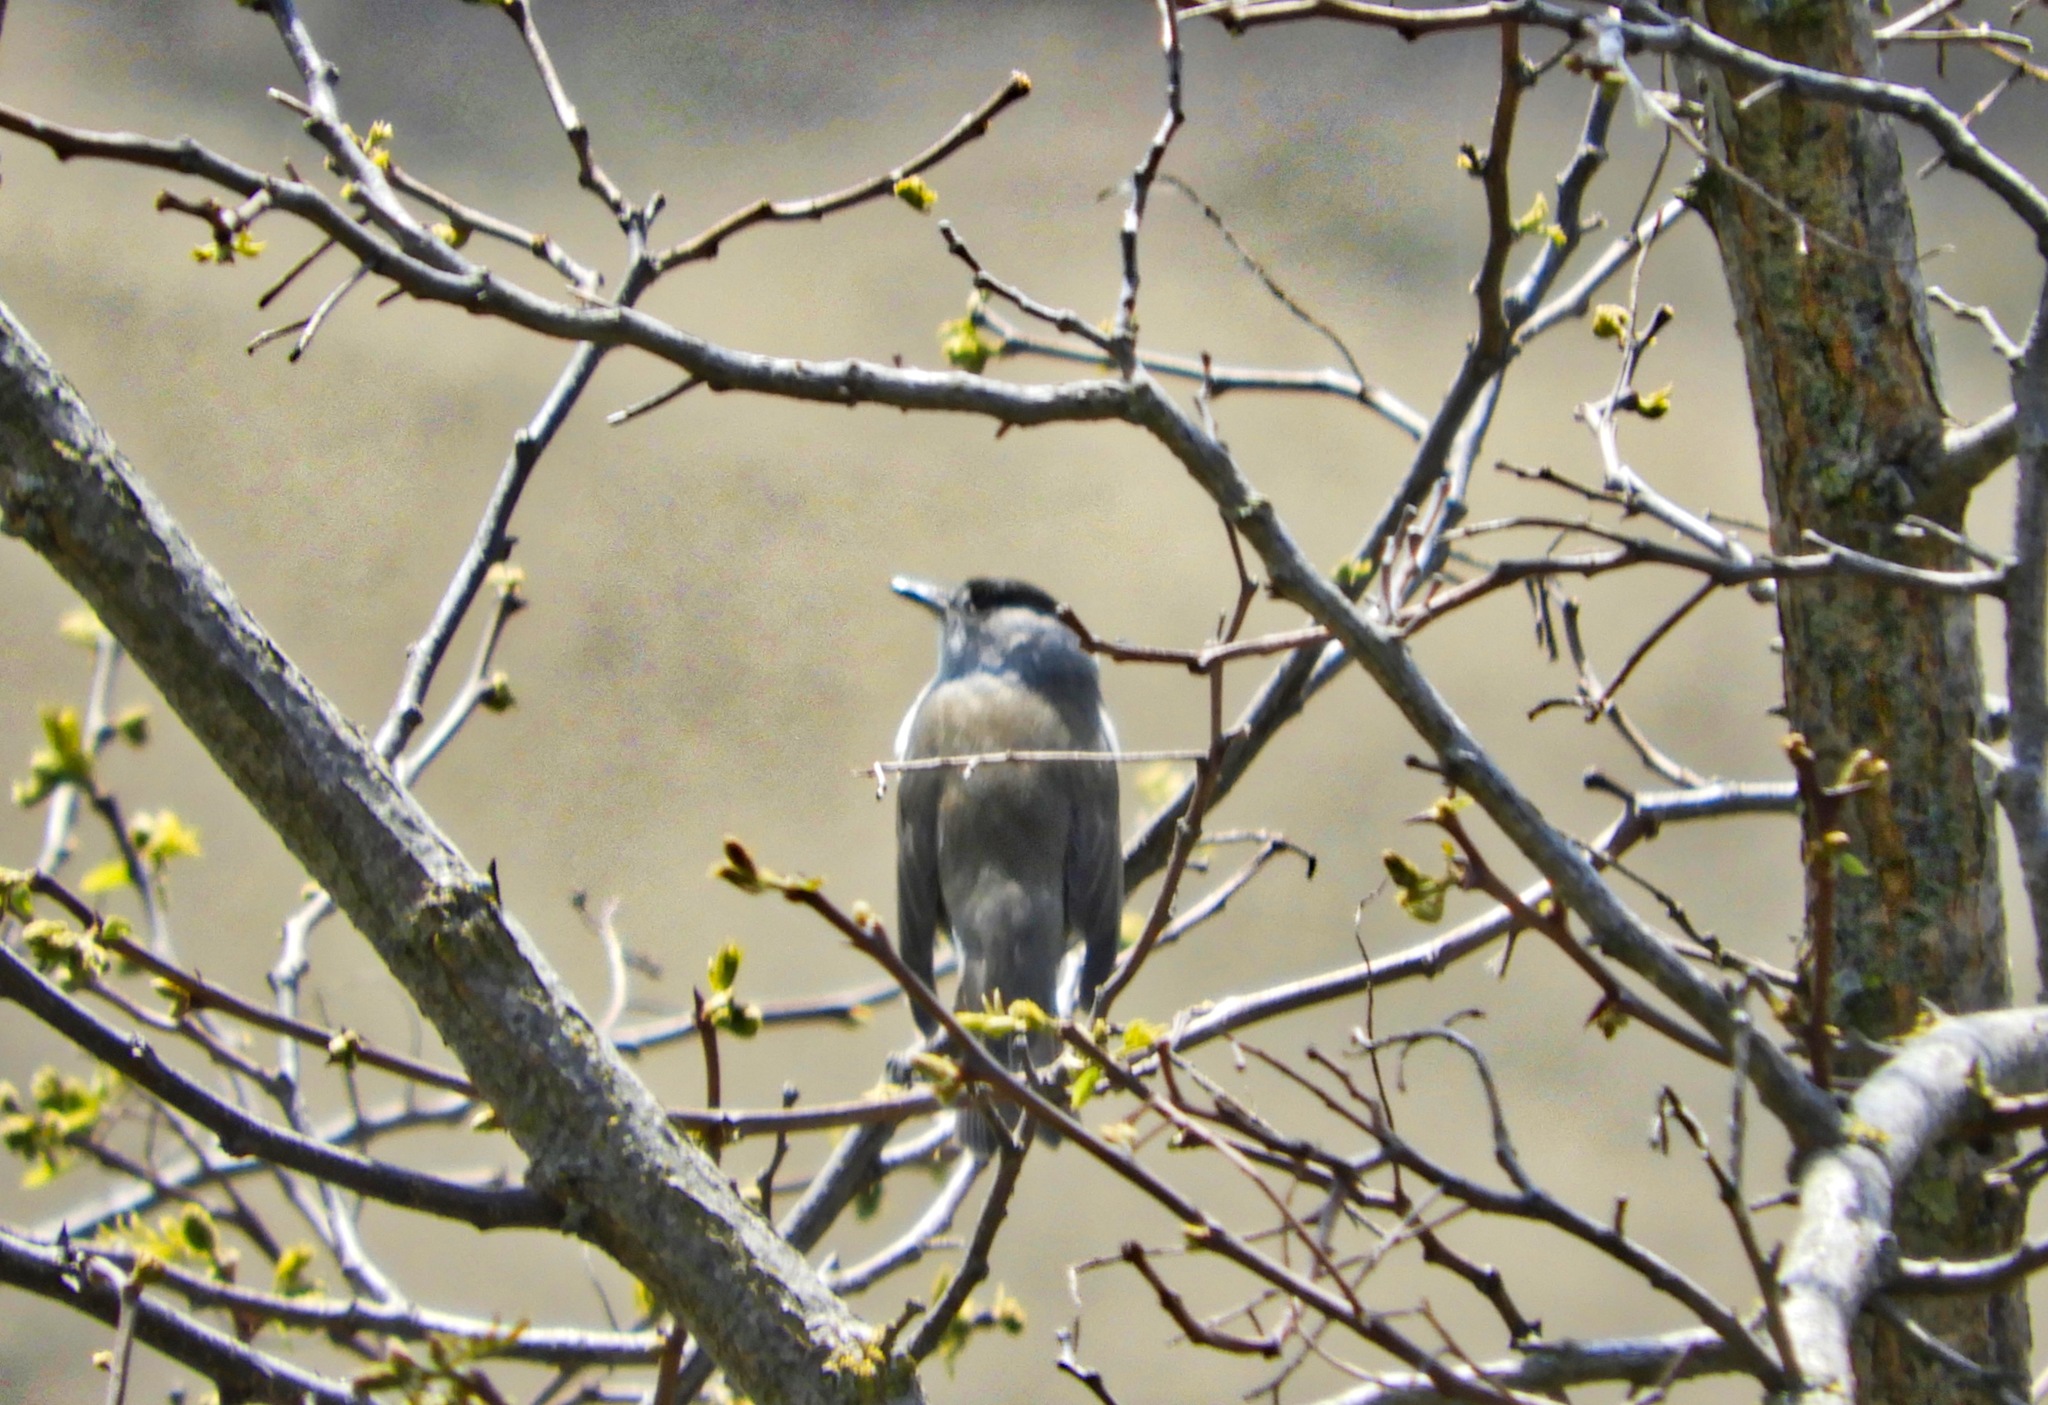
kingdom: Animalia
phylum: Chordata
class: Aves
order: Passeriformes
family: Sylviidae
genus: Sylvia
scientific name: Sylvia atricapilla
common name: Eurasian blackcap
